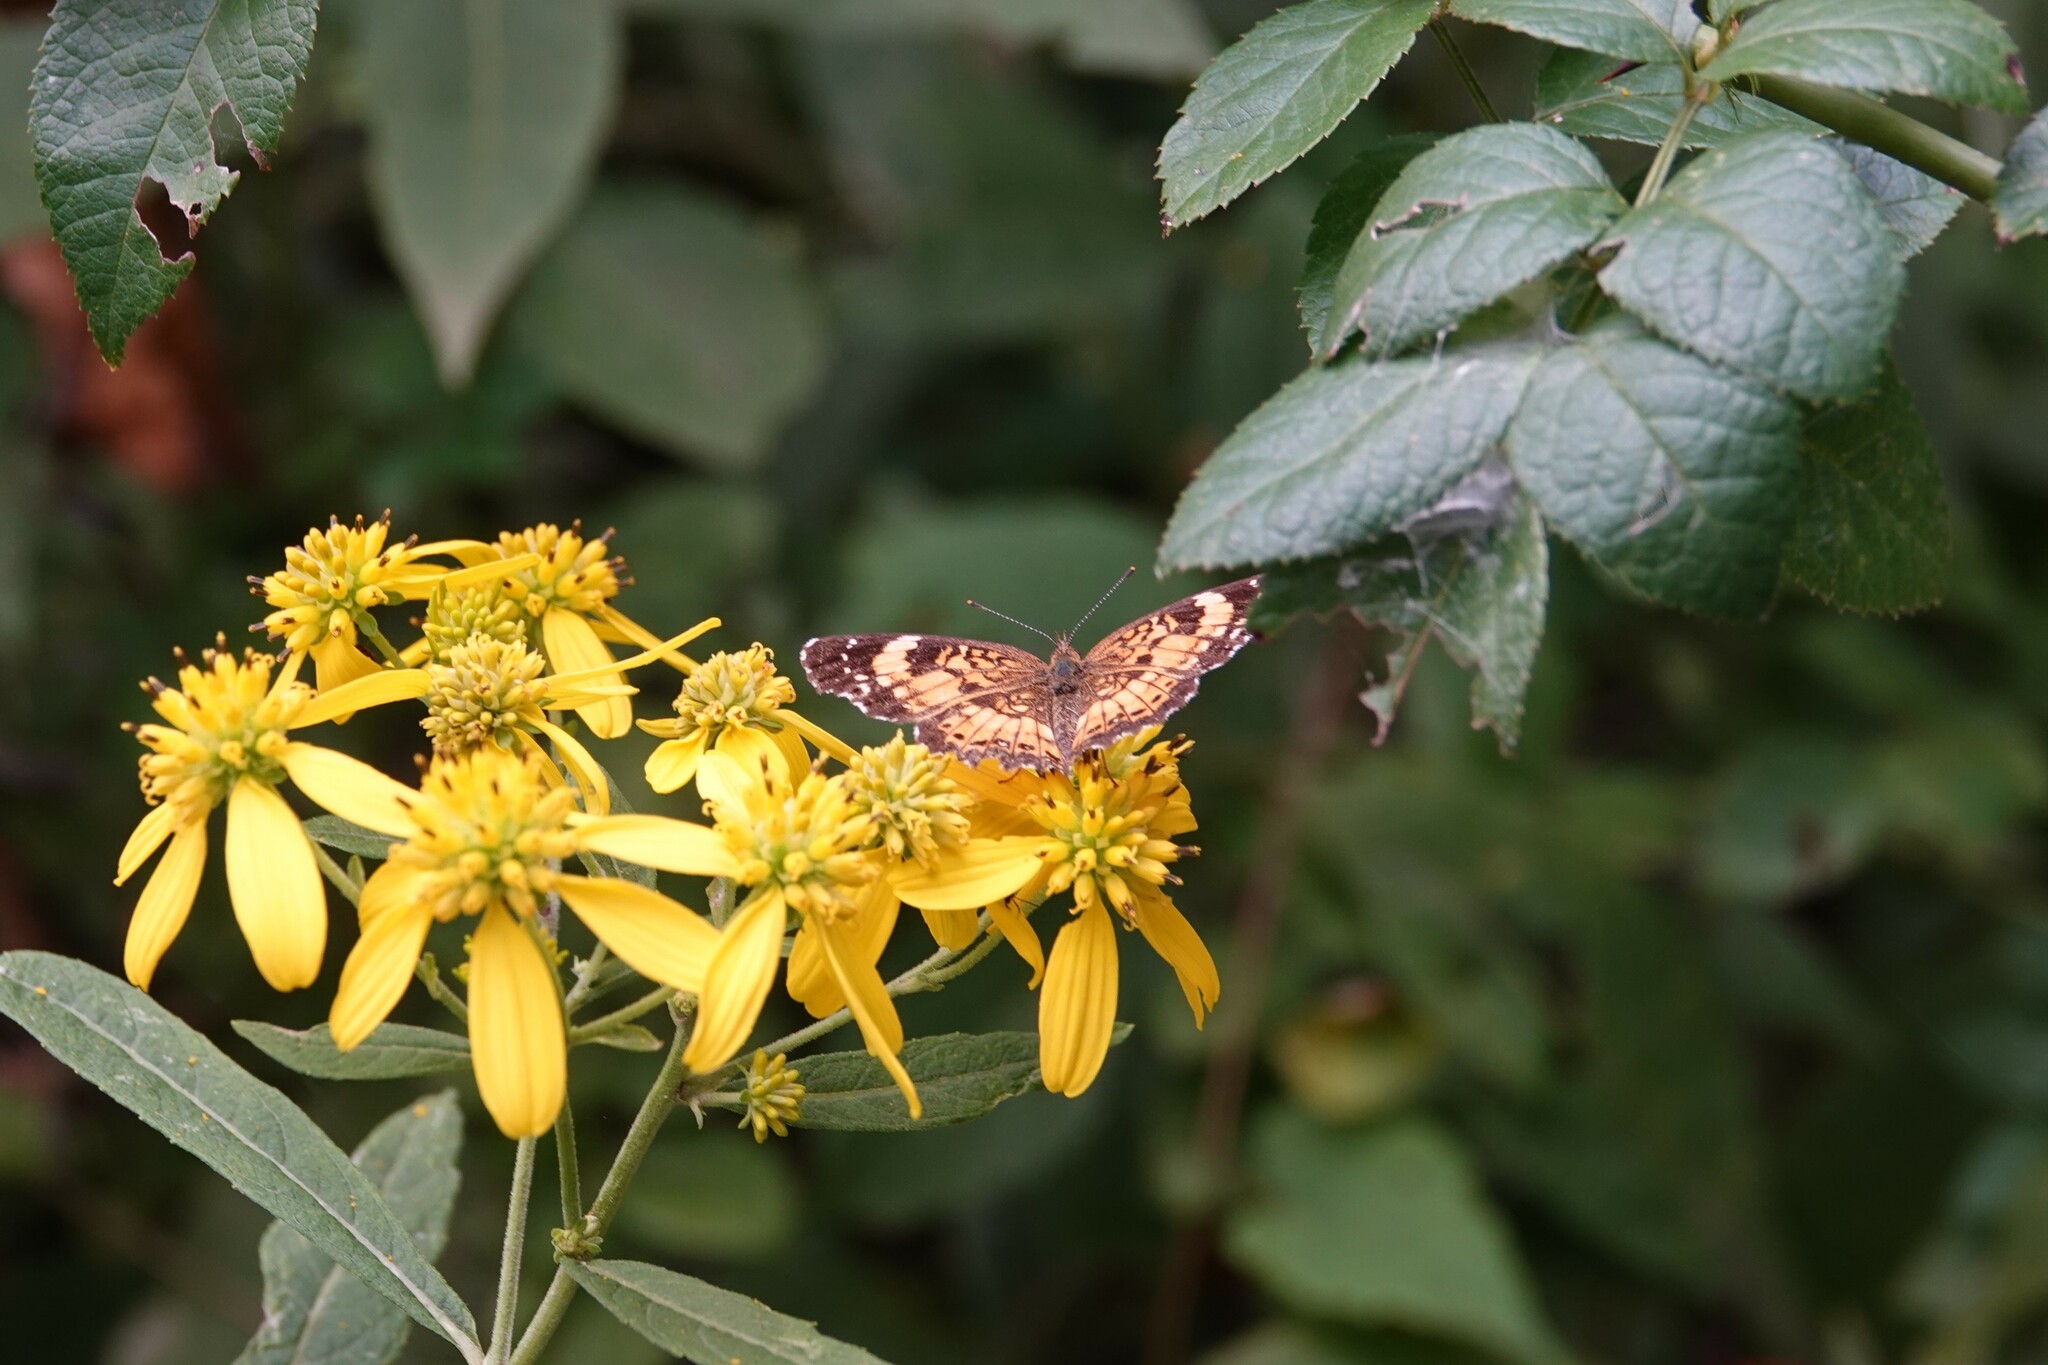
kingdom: Animalia
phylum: Arthropoda
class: Insecta
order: Lepidoptera
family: Nymphalidae
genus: Chlosyne
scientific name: Chlosyne nycteis
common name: Silvery checkerspot
